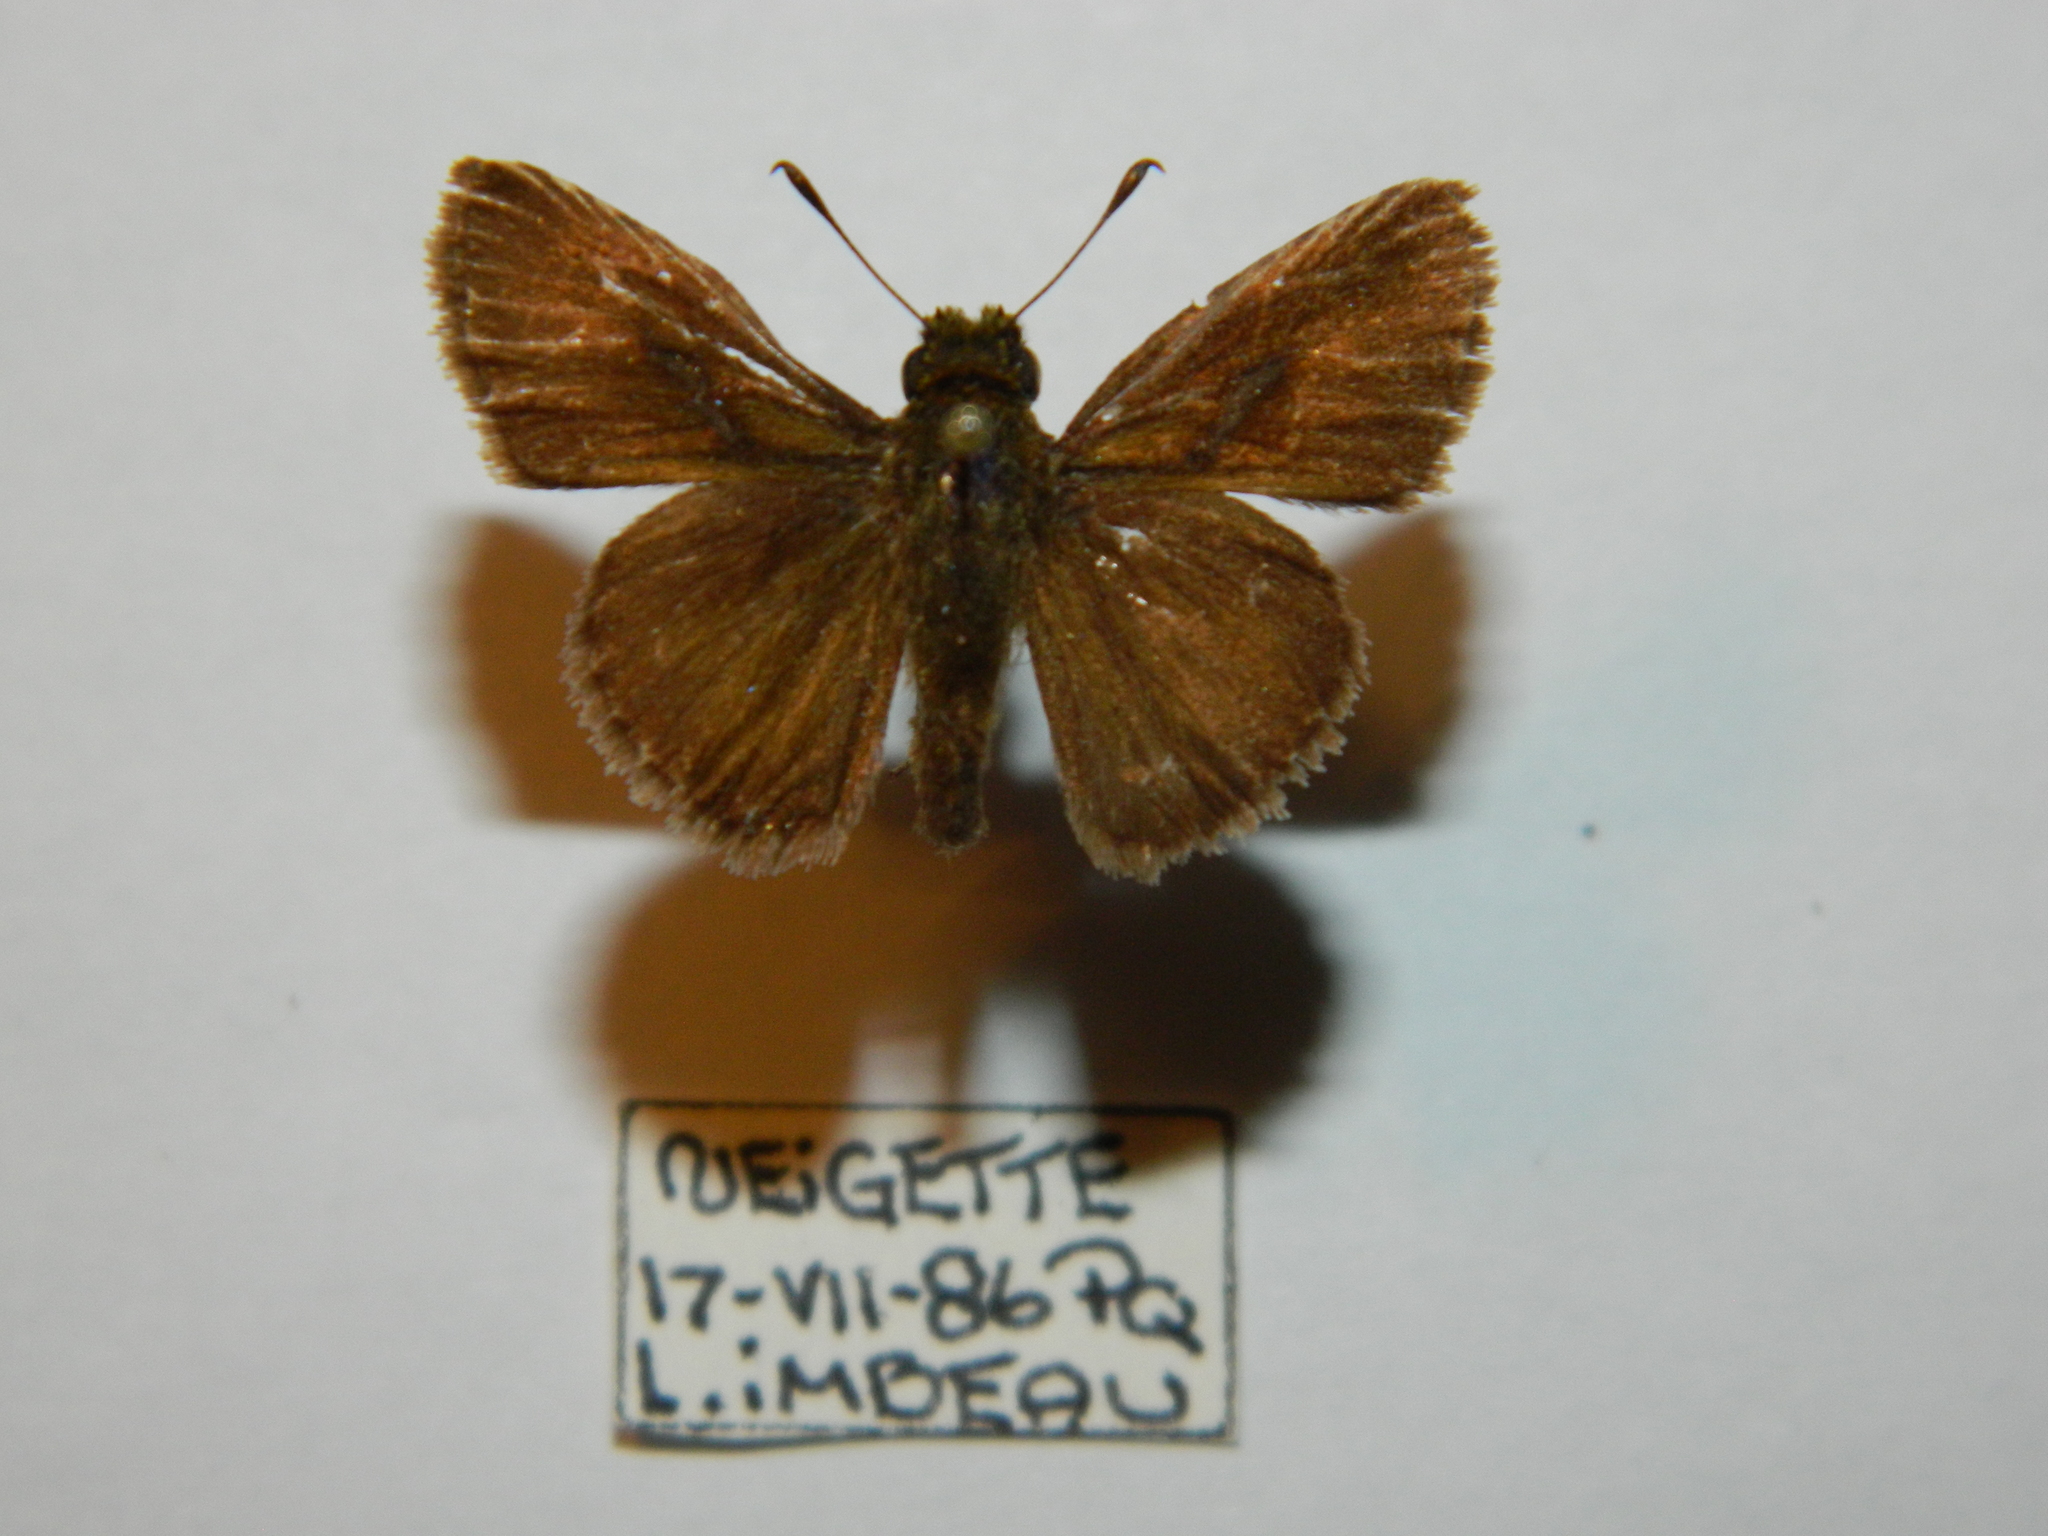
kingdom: Animalia
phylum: Arthropoda
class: Insecta
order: Lepidoptera
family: Hesperiidae
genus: Euphyes
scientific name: Euphyes vestris
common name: Dun skipper
